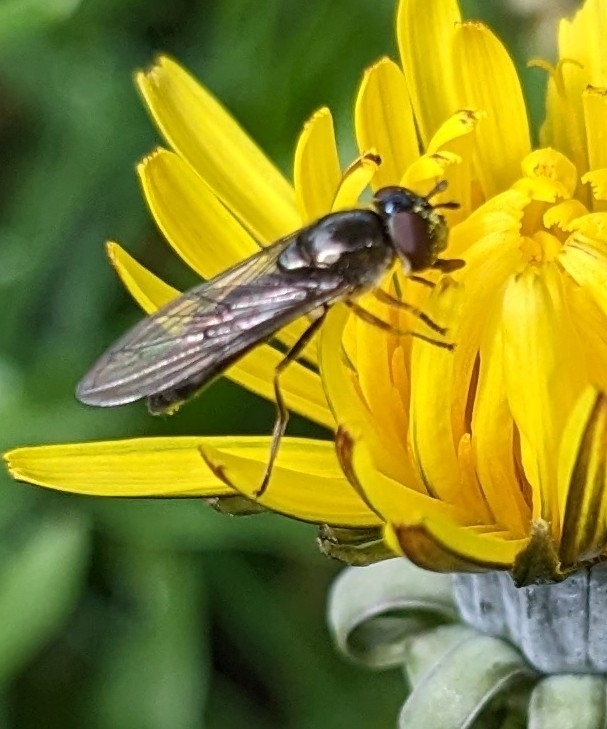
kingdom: Animalia
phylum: Arthropoda
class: Insecta
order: Diptera
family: Syrphidae
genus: Platycheirus
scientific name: Platycheirus albimanus
